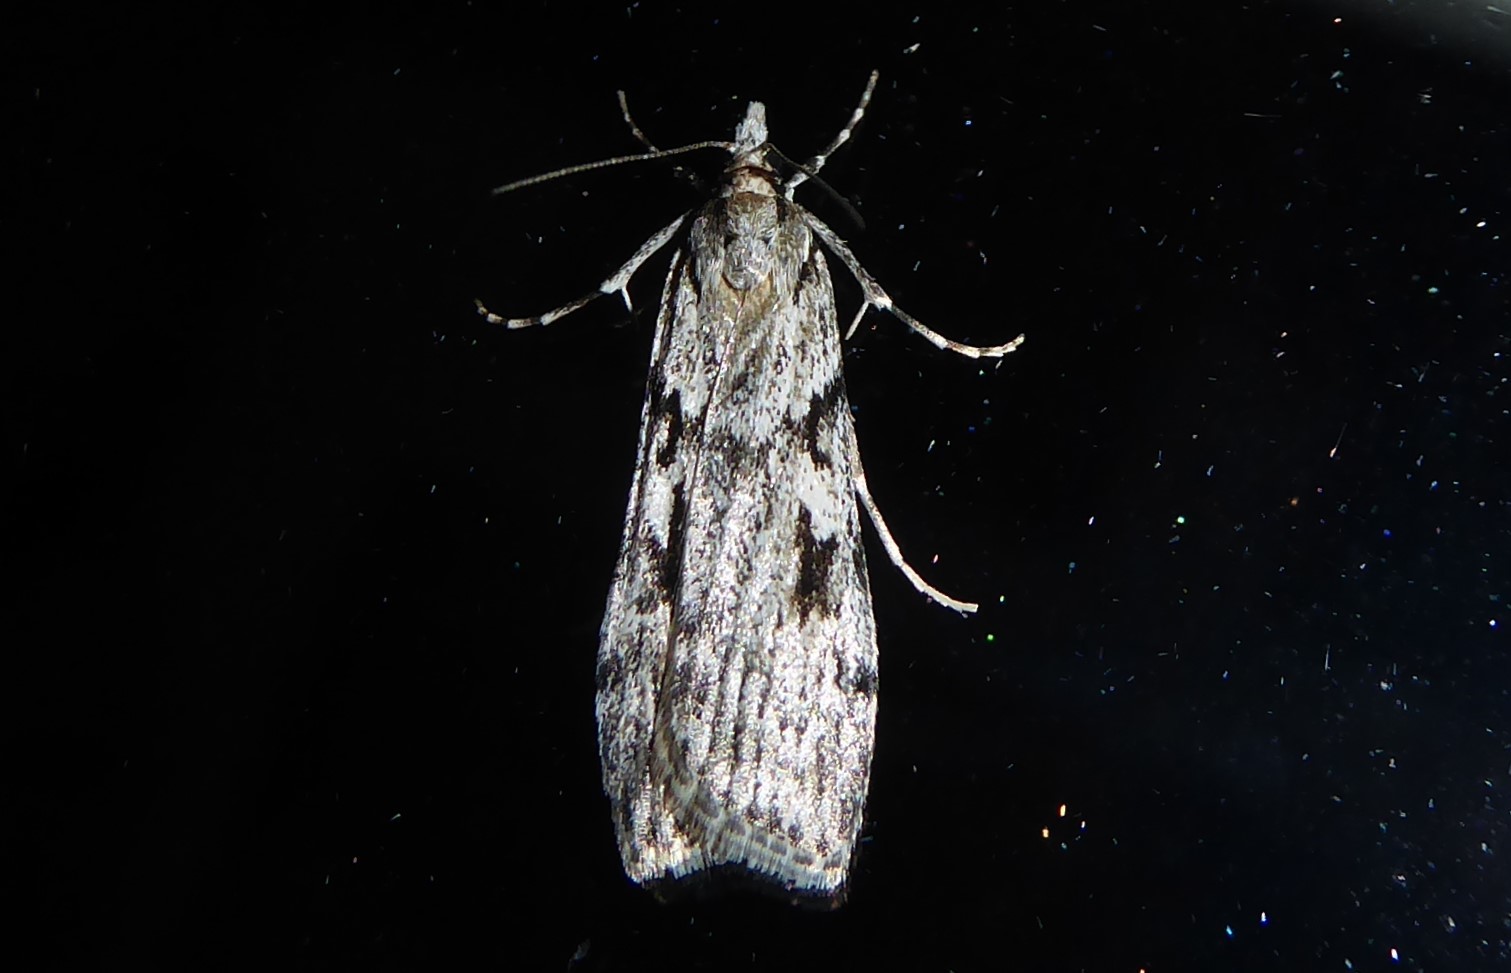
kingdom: Animalia
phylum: Arthropoda
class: Insecta
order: Lepidoptera
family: Crambidae
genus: Scoparia
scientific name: Scoparia halopis
